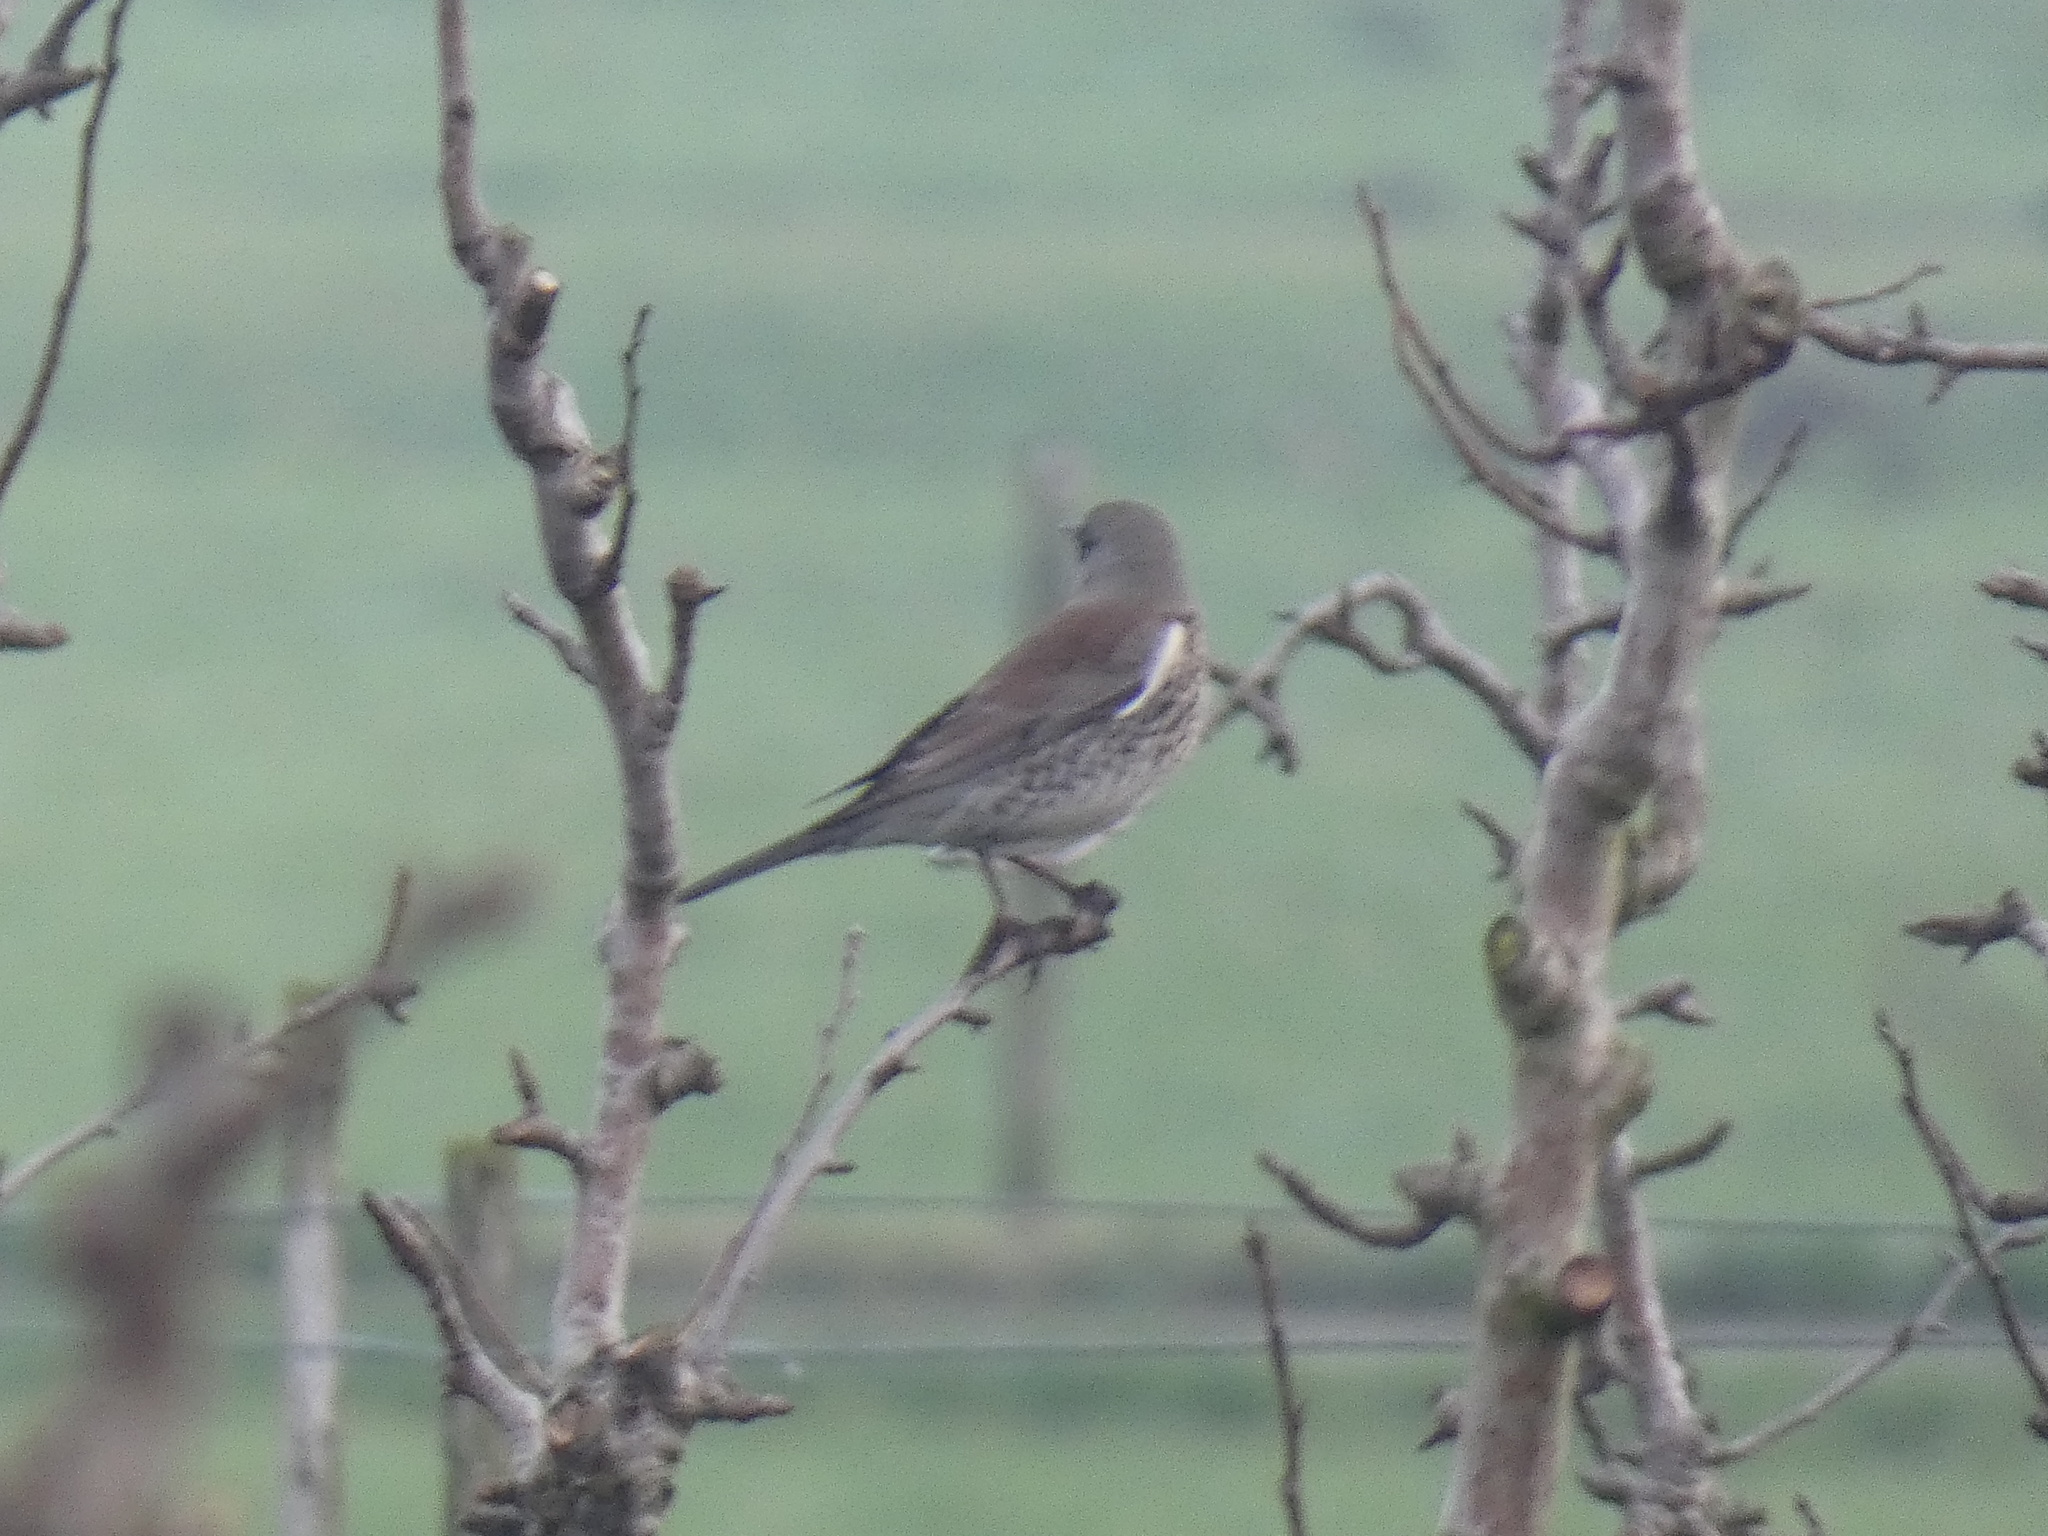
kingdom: Animalia
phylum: Chordata
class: Aves
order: Passeriformes
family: Turdidae
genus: Turdus
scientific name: Turdus pilaris
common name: Fieldfare
